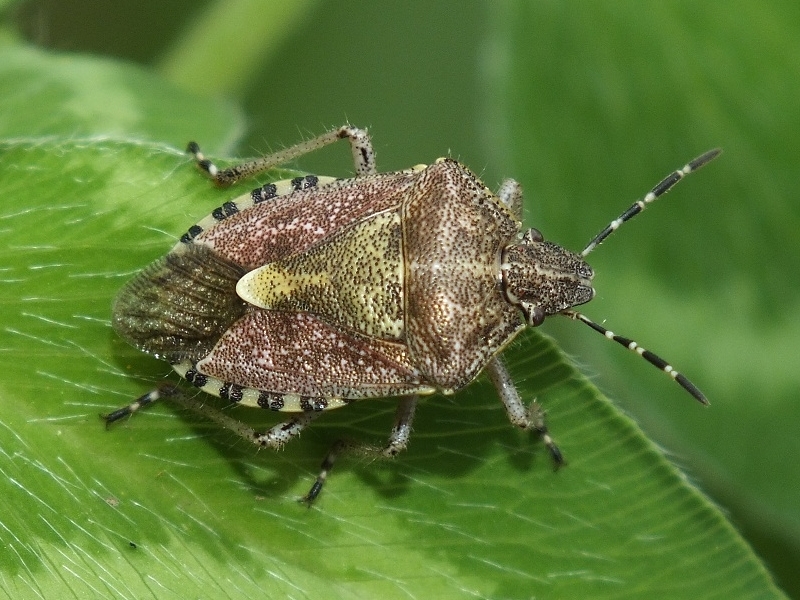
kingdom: Animalia
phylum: Arthropoda
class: Insecta
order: Hemiptera
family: Pentatomidae
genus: Dolycoris
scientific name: Dolycoris baccarum
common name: Sloe bug
